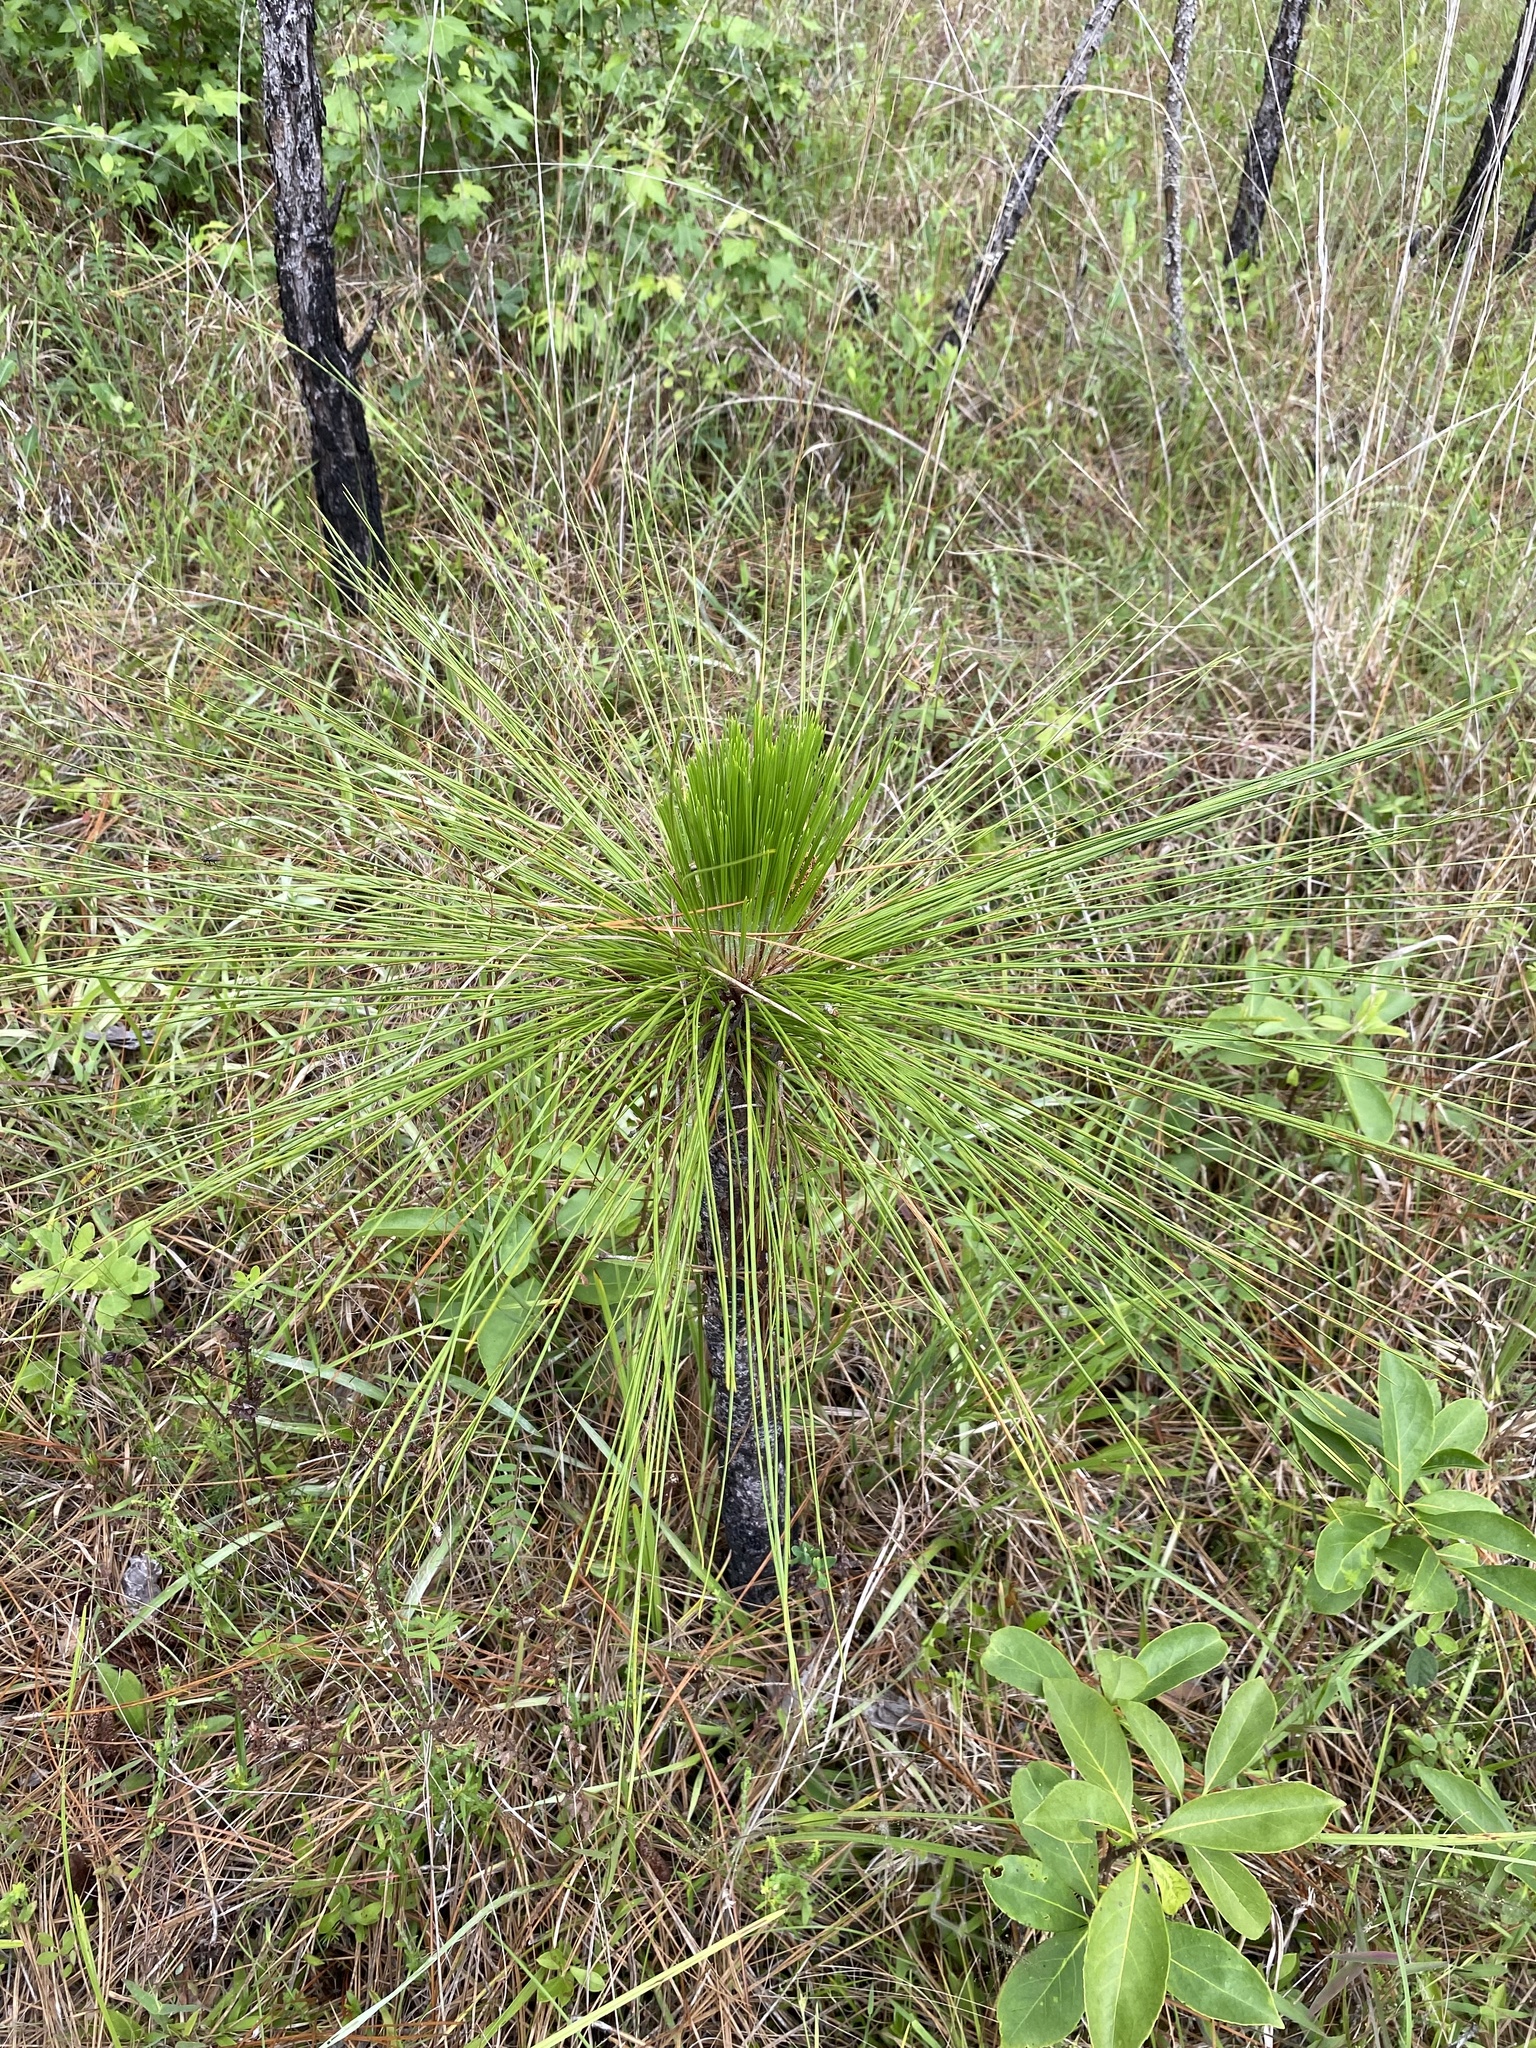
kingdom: Plantae
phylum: Tracheophyta
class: Pinopsida
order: Pinales
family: Pinaceae
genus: Pinus
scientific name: Pinus palustris
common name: Longleaf pine
